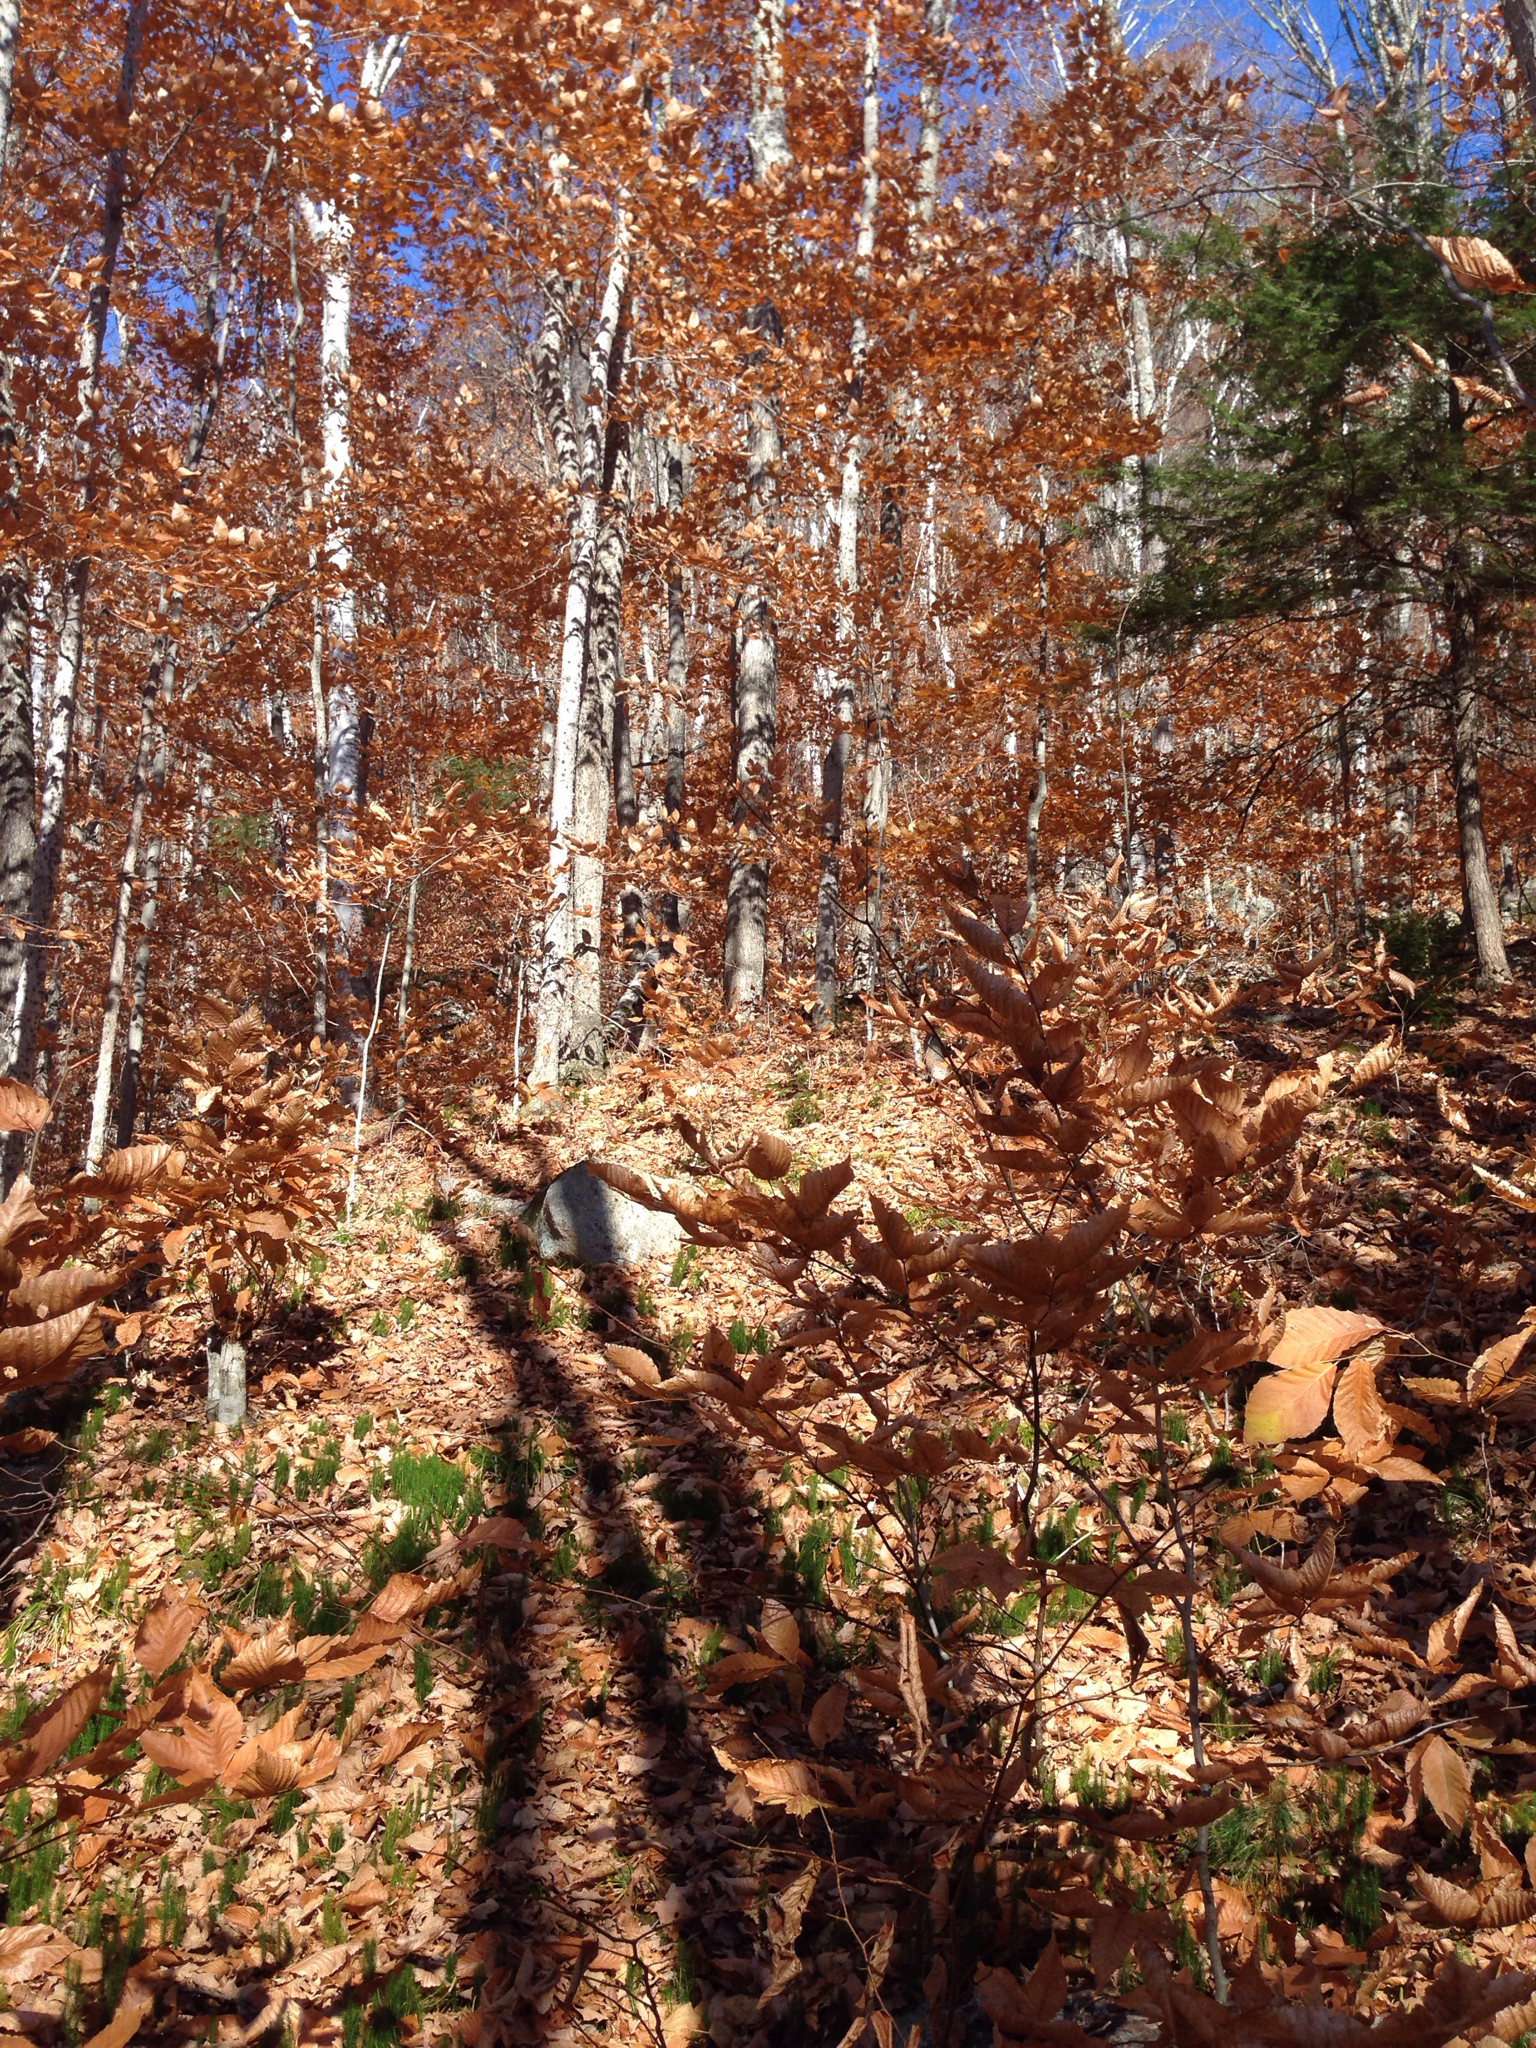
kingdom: Plantae
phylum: Tracheophyta
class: Magnoliopsida
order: Fagales
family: Fagaceae
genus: Fagus
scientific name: Fagus grandifolia
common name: American beech
